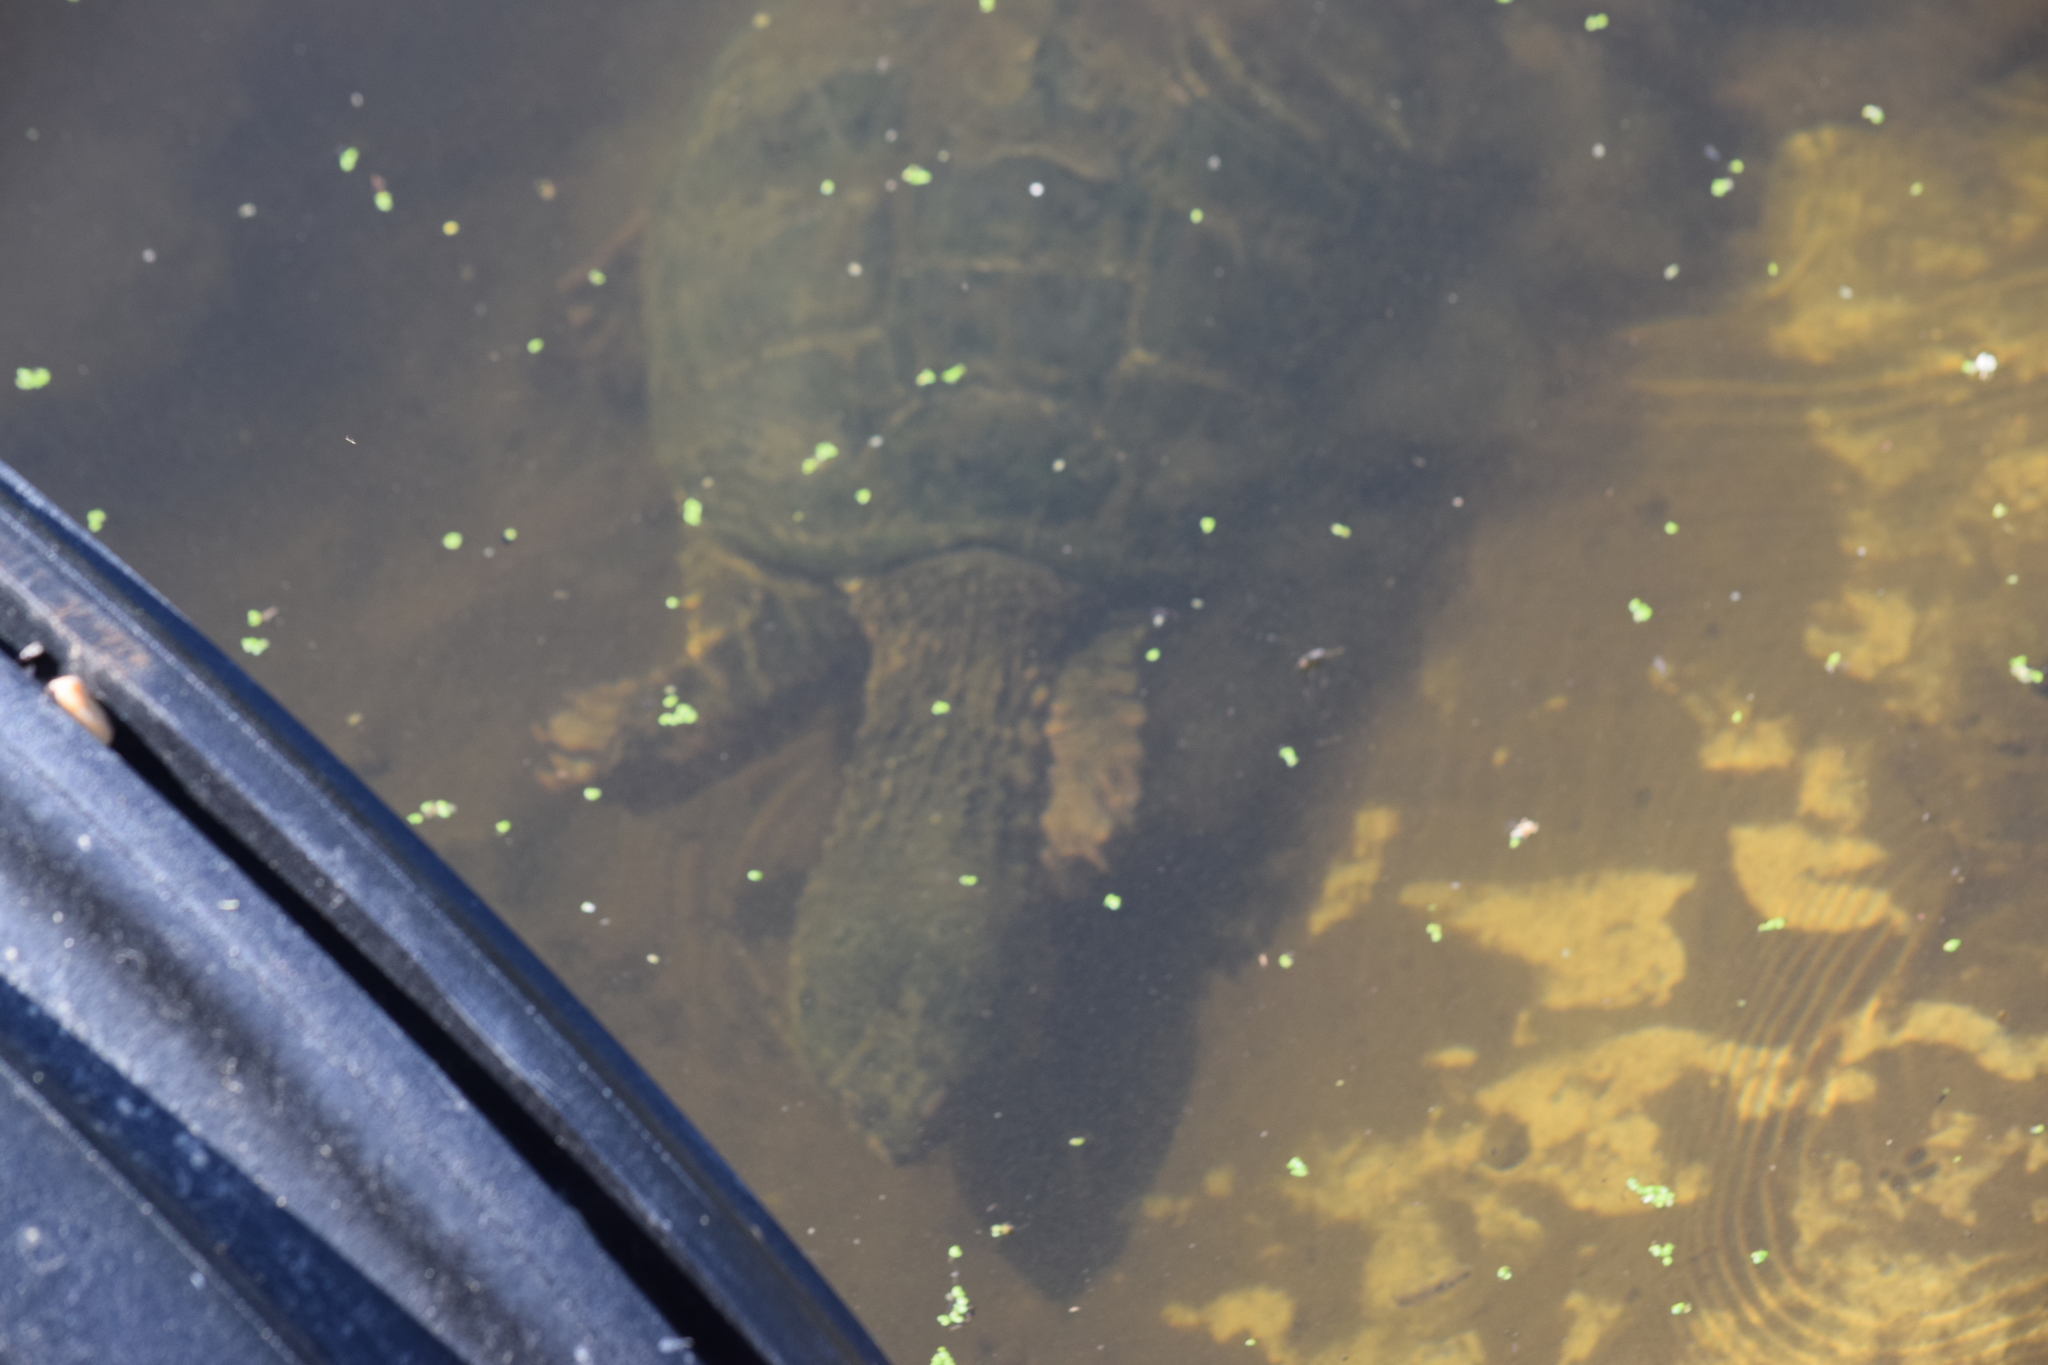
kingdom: Animalia
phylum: Chordata
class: Testudines
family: Chelydridae
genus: Chelydra
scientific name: Chelydra serpentina
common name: Common snapping turtle
